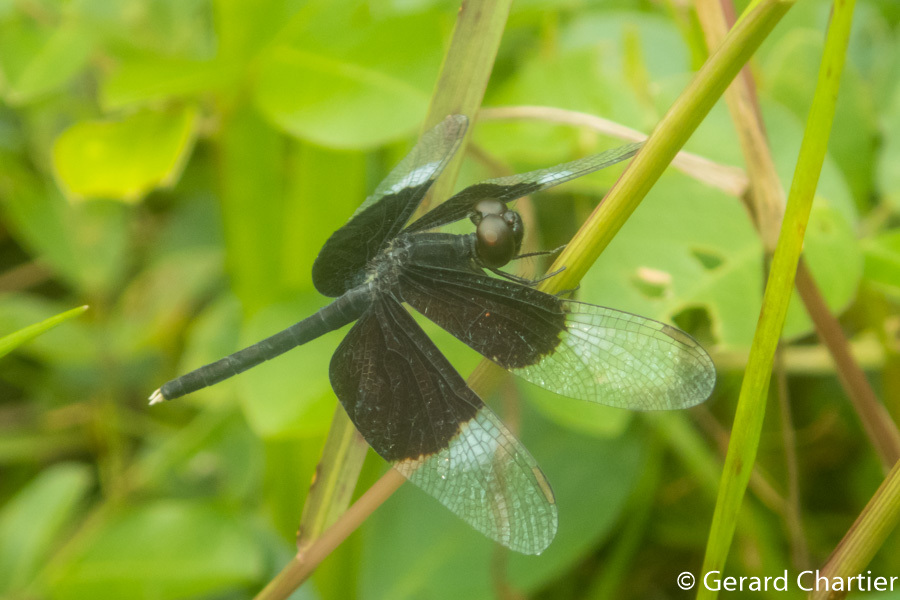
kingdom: Animalia
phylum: Arthropoda
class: Insecta
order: Odonata
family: Libellulidae
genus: Neurothemis
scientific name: Neurothemis tullia
